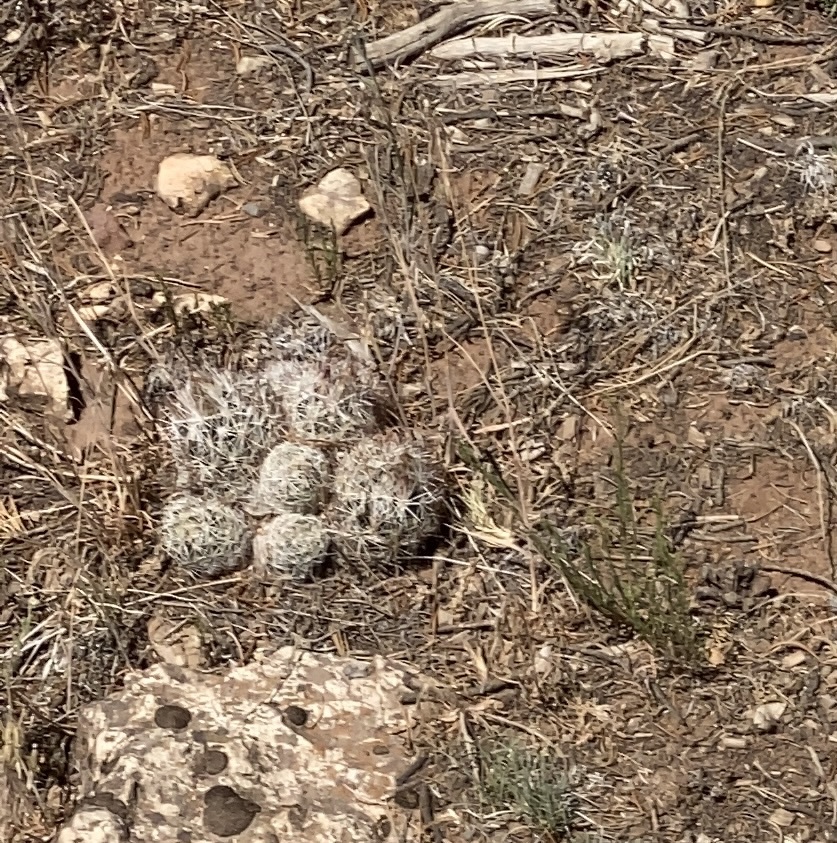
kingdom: Plantae
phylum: Tracheophyta
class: Magnoliopsida
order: Caryophyllales
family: Cactaceae
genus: Pelecyphora
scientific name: Pelecyphora vivipara
